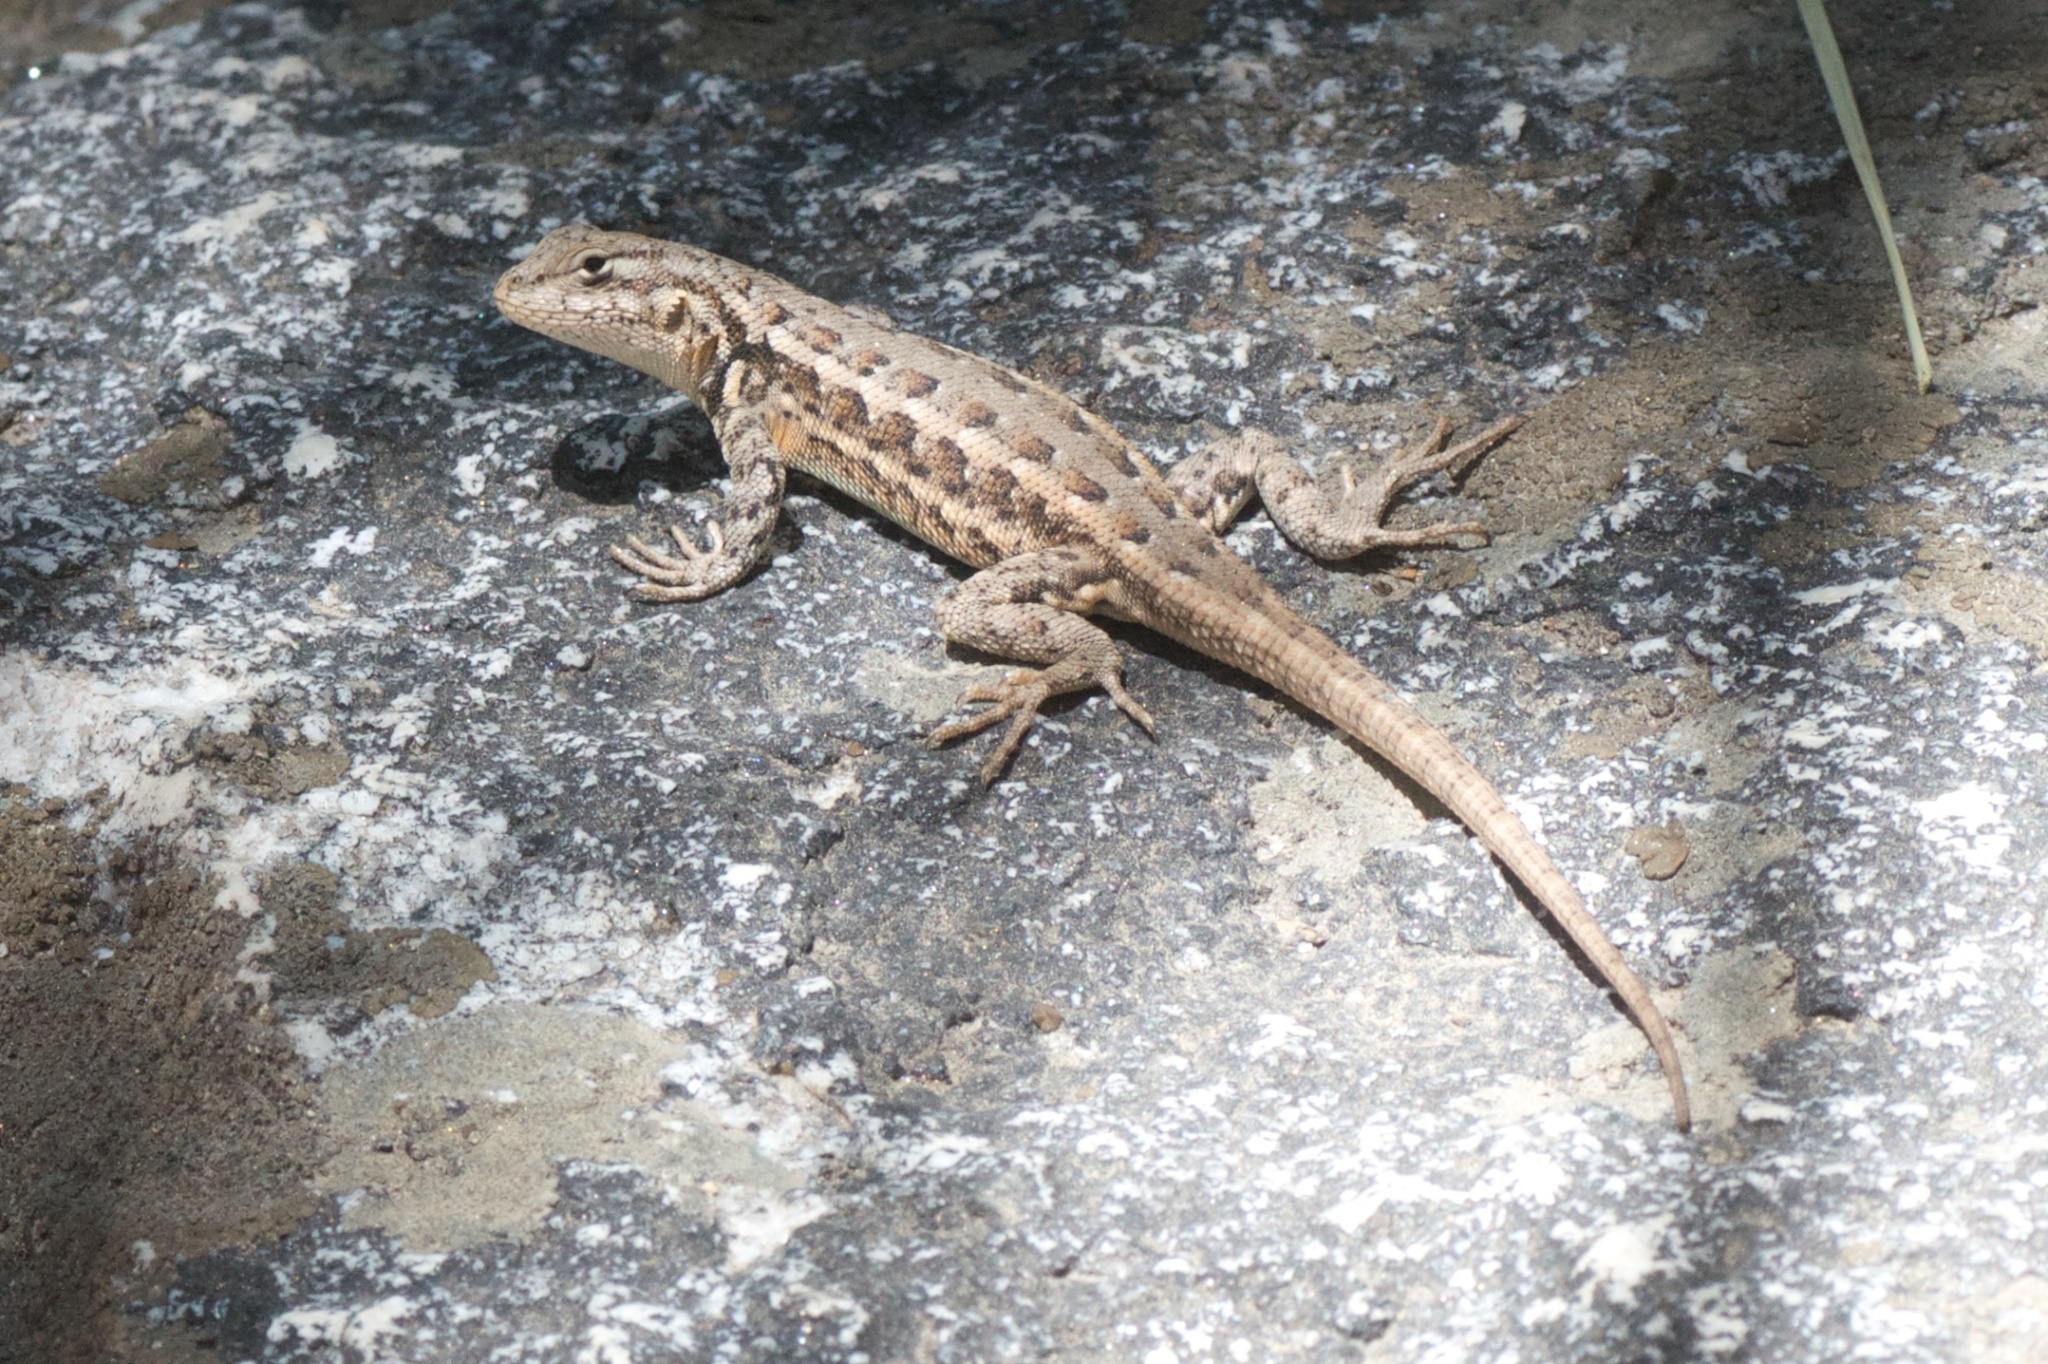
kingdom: Animalia
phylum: Chordata
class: Squamata
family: Phrynosomatidae
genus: Sceloporus
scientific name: Sceloporus graciosus
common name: Sagebrush lizard
